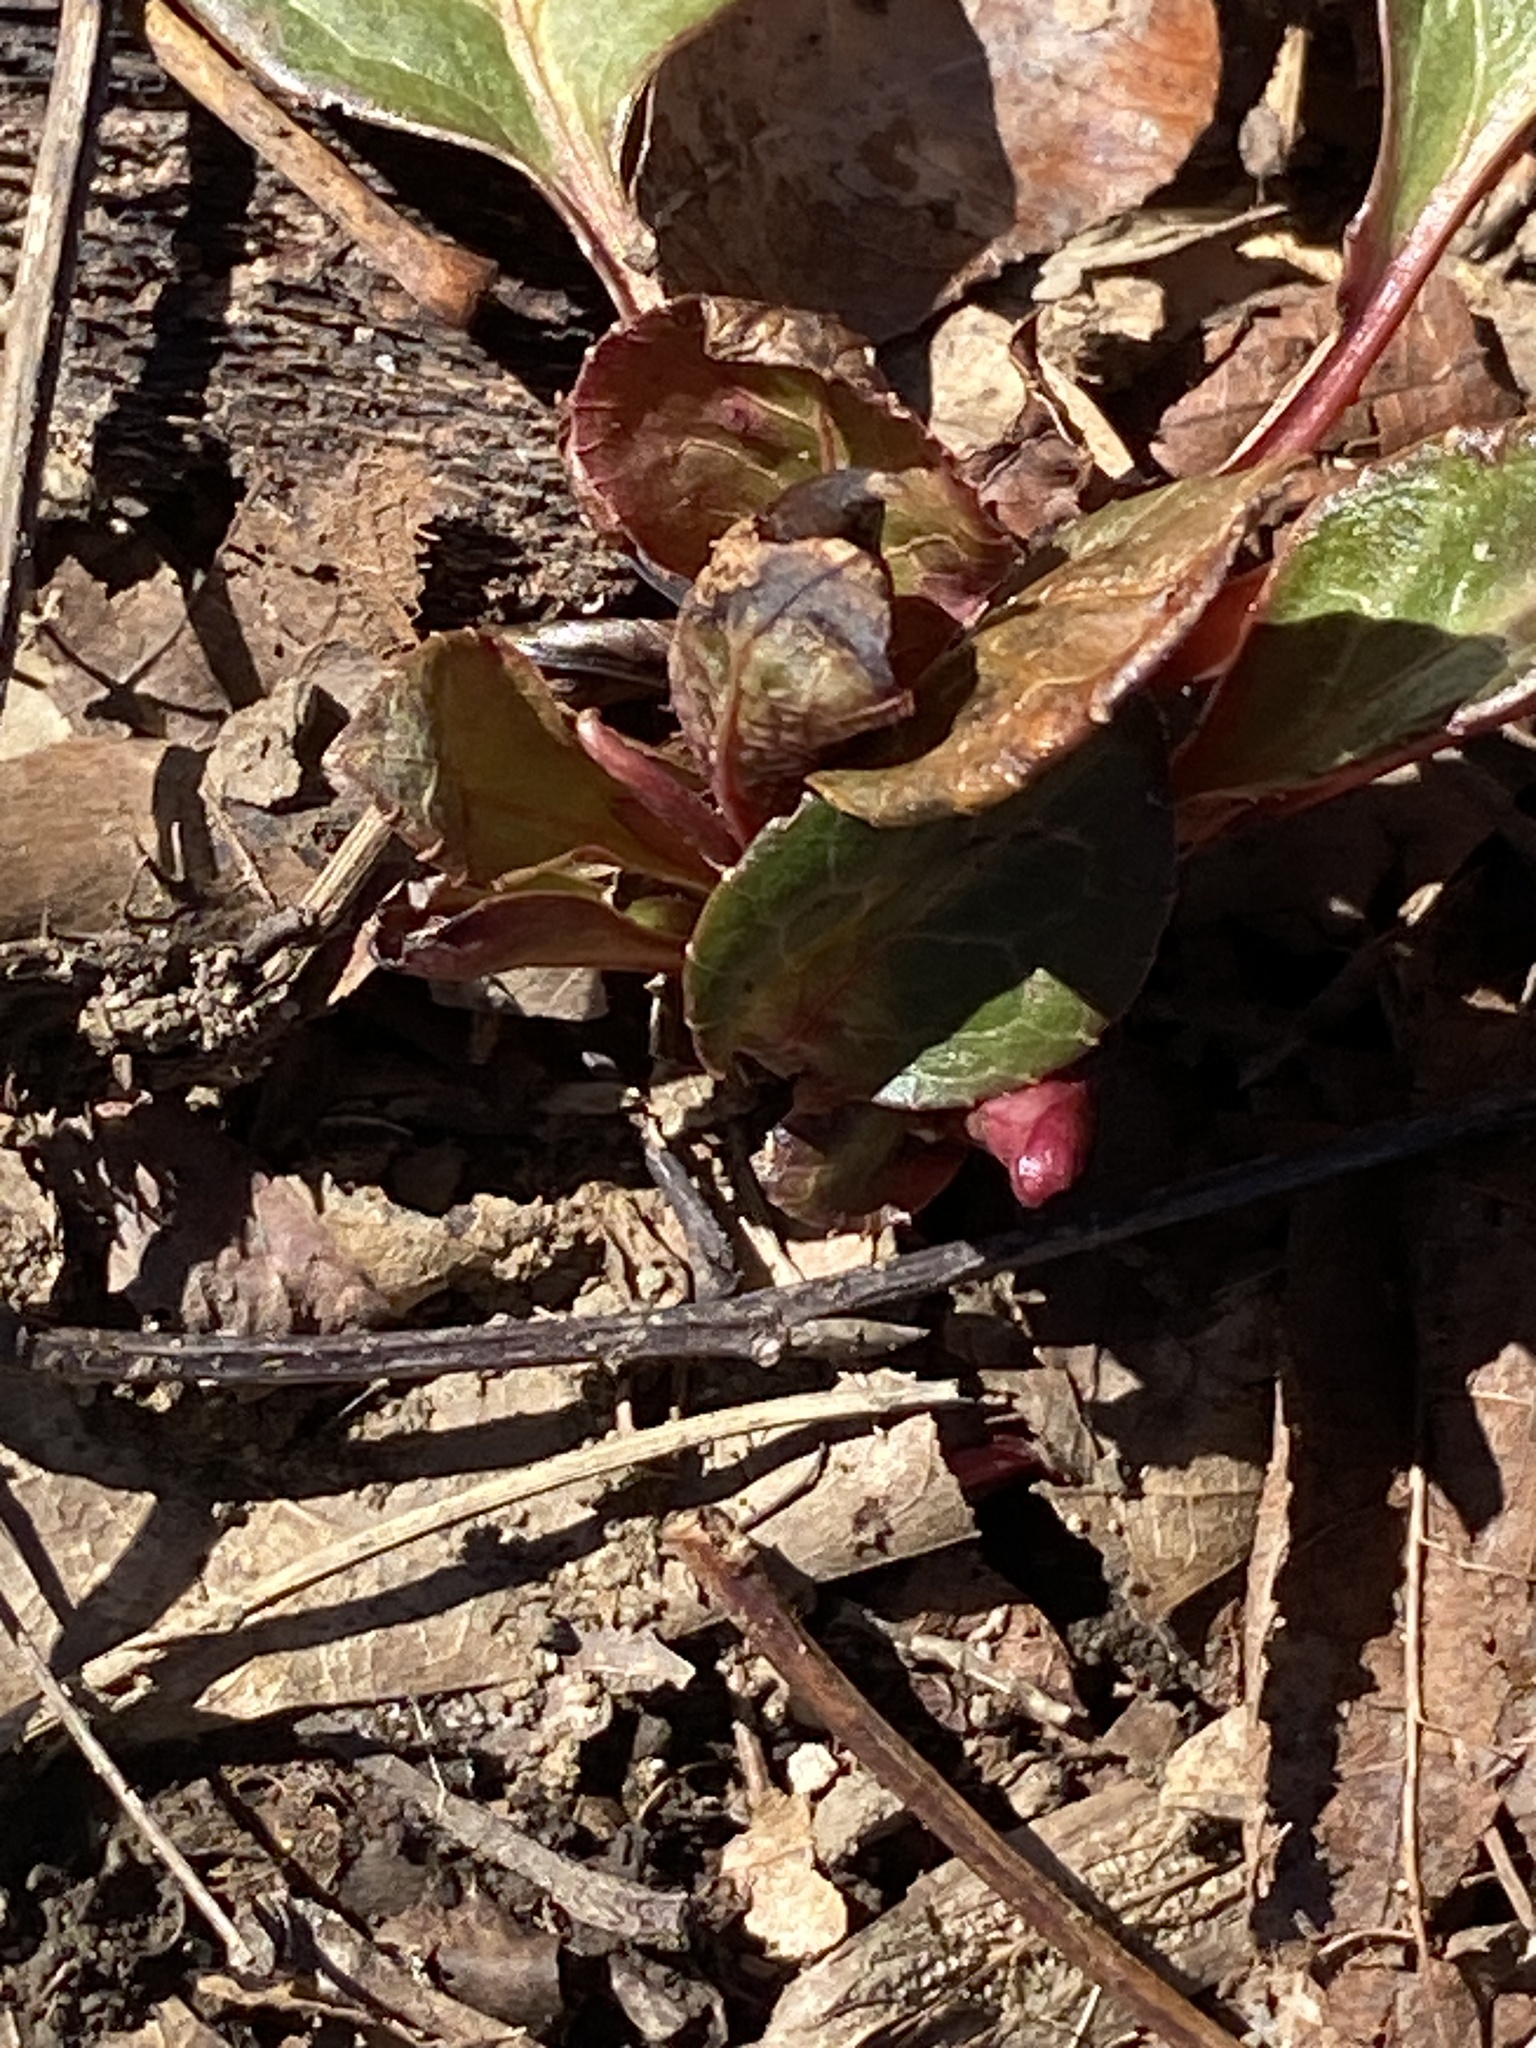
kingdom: Plantae
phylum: Tracheophyta
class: Magnoliopsida
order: Ericales
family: Ericaceae
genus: Pyrola
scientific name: Pyrola americana
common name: American wintergreen
